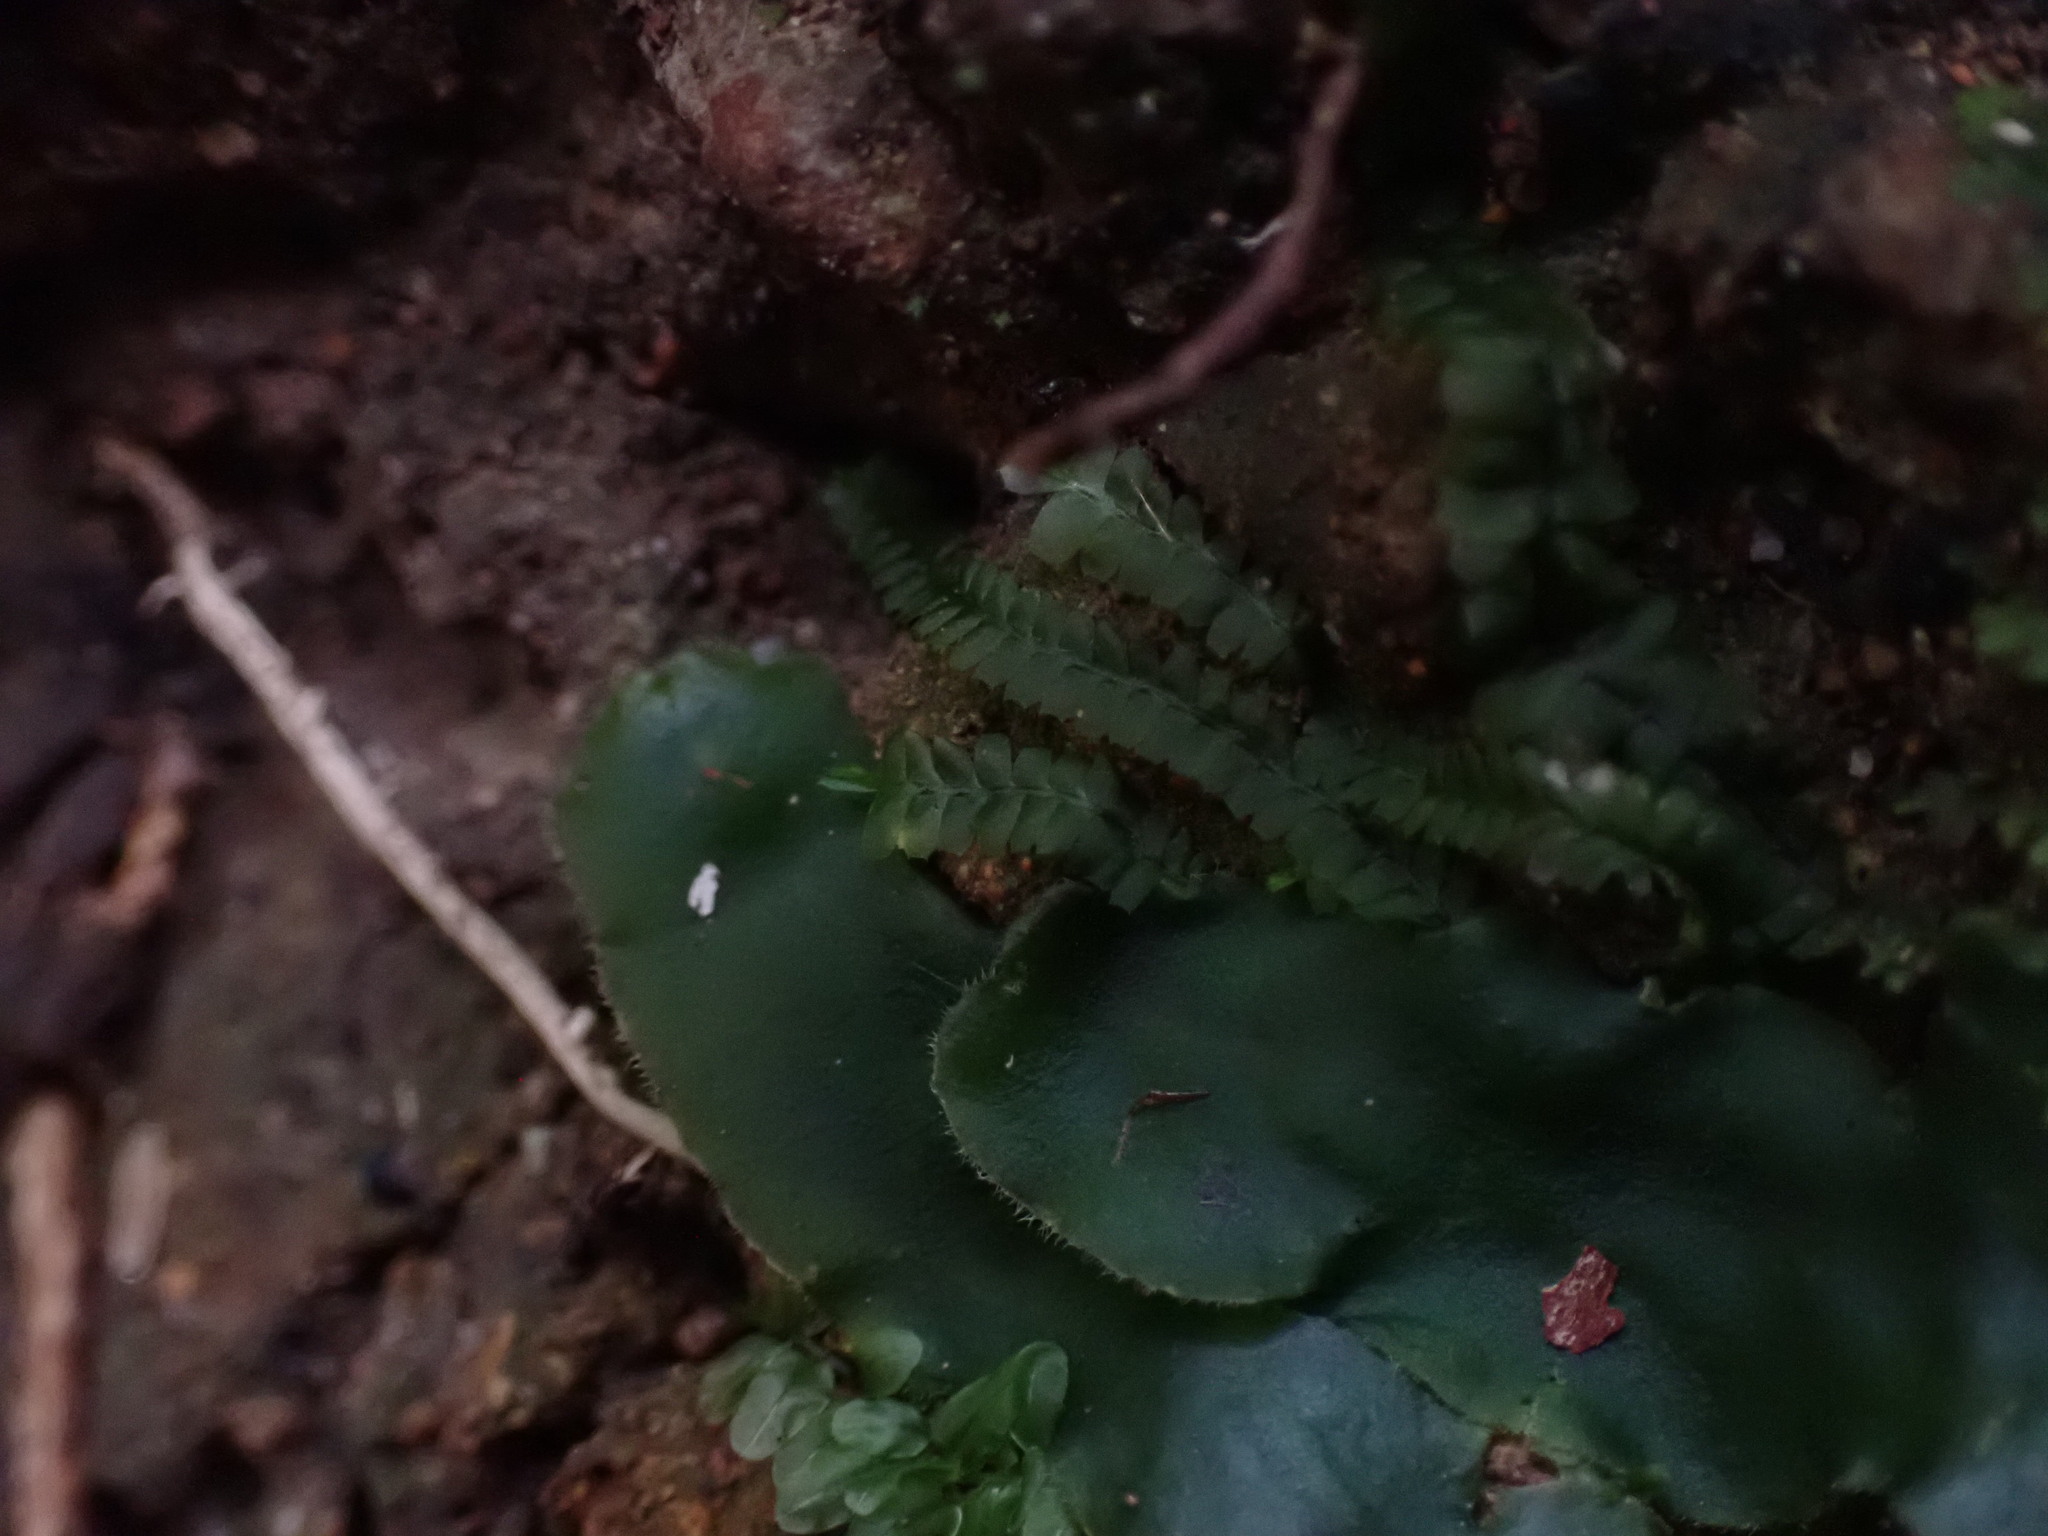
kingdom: Plantae
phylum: Marchantiophyta
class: Marchantiopsida
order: Marchantiales
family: Dumortieraceae
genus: Dumortiera
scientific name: Dumortiera hirsuta
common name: Dumortier's liverwort
